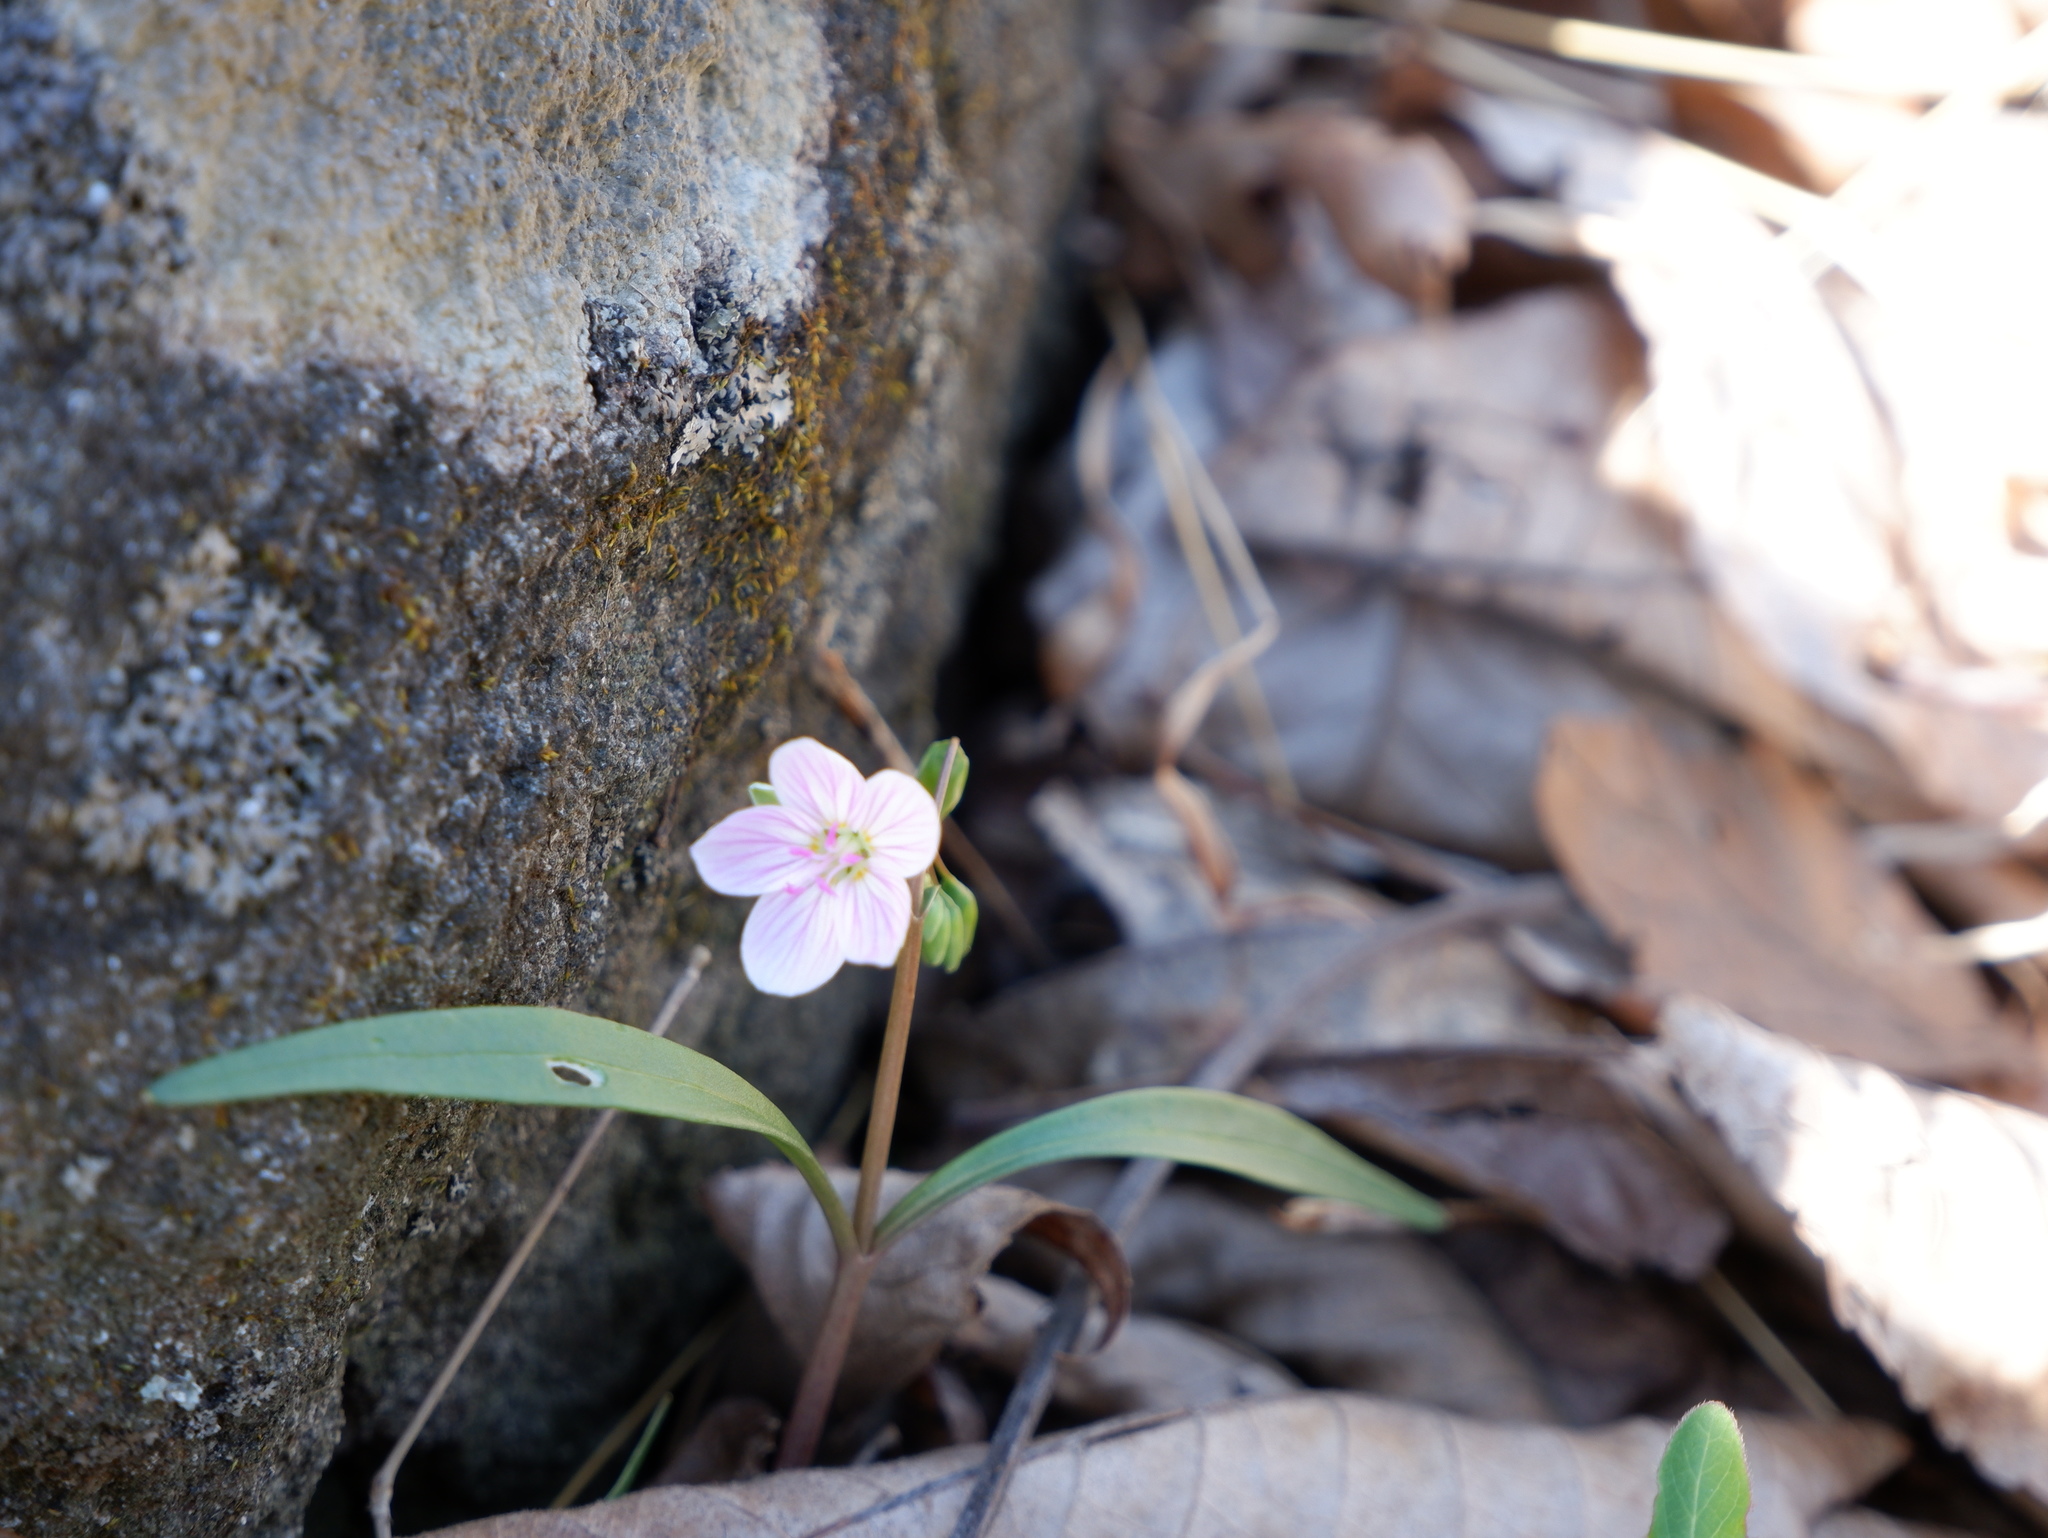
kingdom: Plantae
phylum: Tracheophyta
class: Magnoliopsida
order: Caryophyllales
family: Montiaceae
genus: Claytonia
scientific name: Claytonia virginica
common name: Virginia springbeauty
